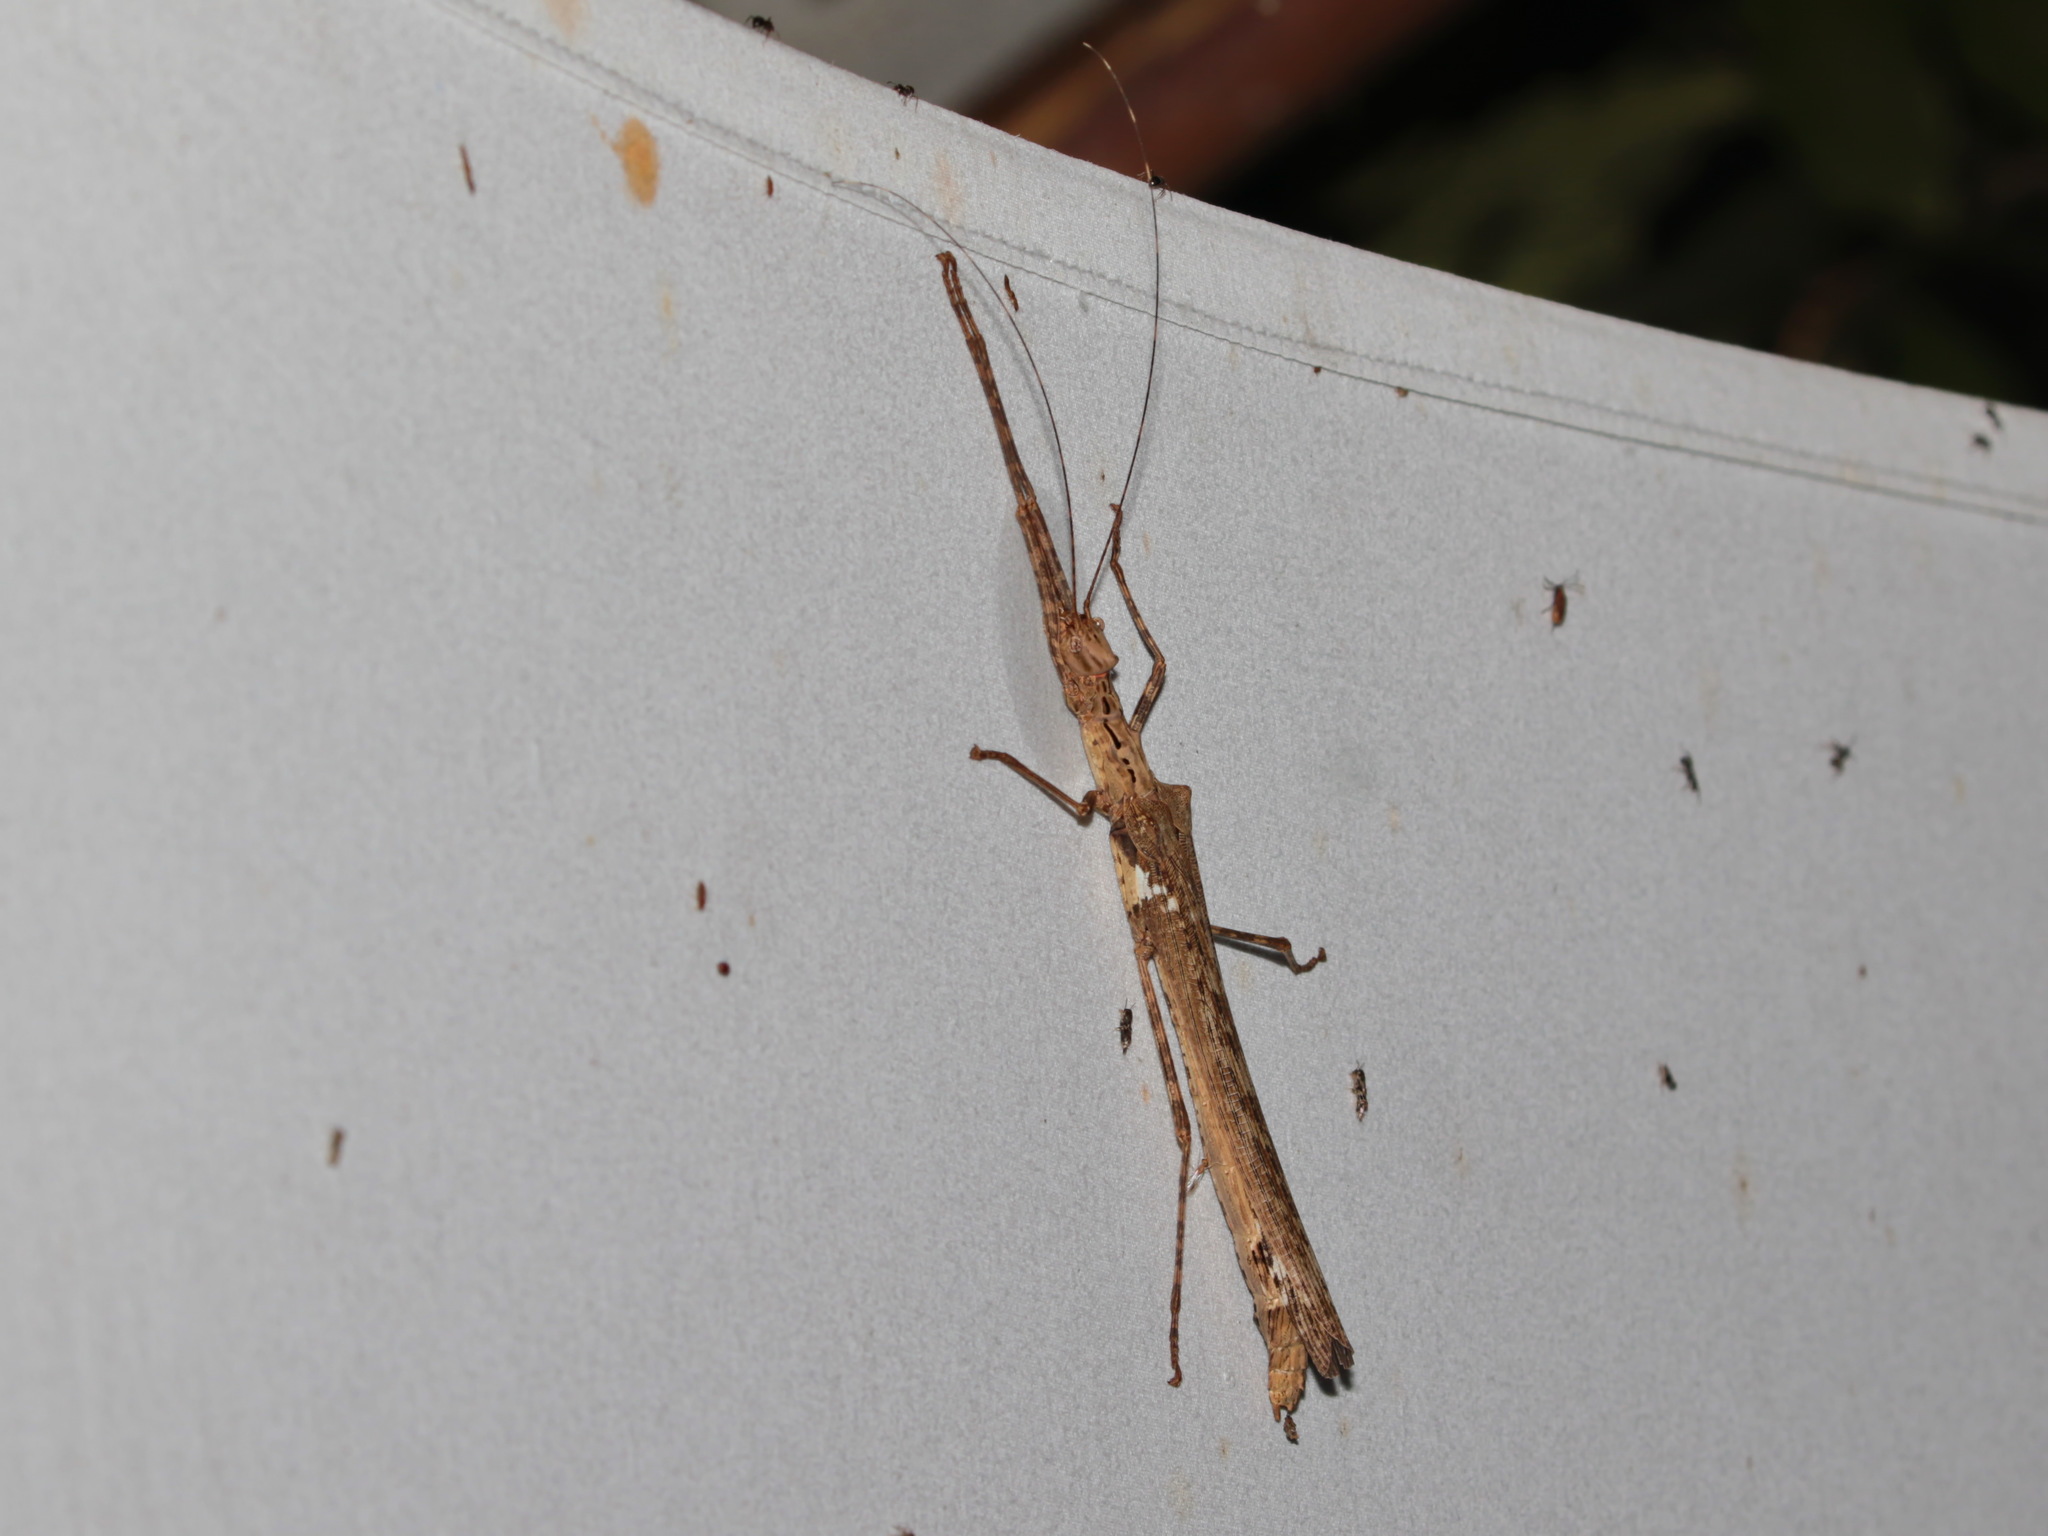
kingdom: Animalia
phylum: Arthropoda
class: Insecta
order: Phasmida
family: Lonchodidae
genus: Trachythorax
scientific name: Trachythorax maculicollis
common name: Oleander stick-insect
